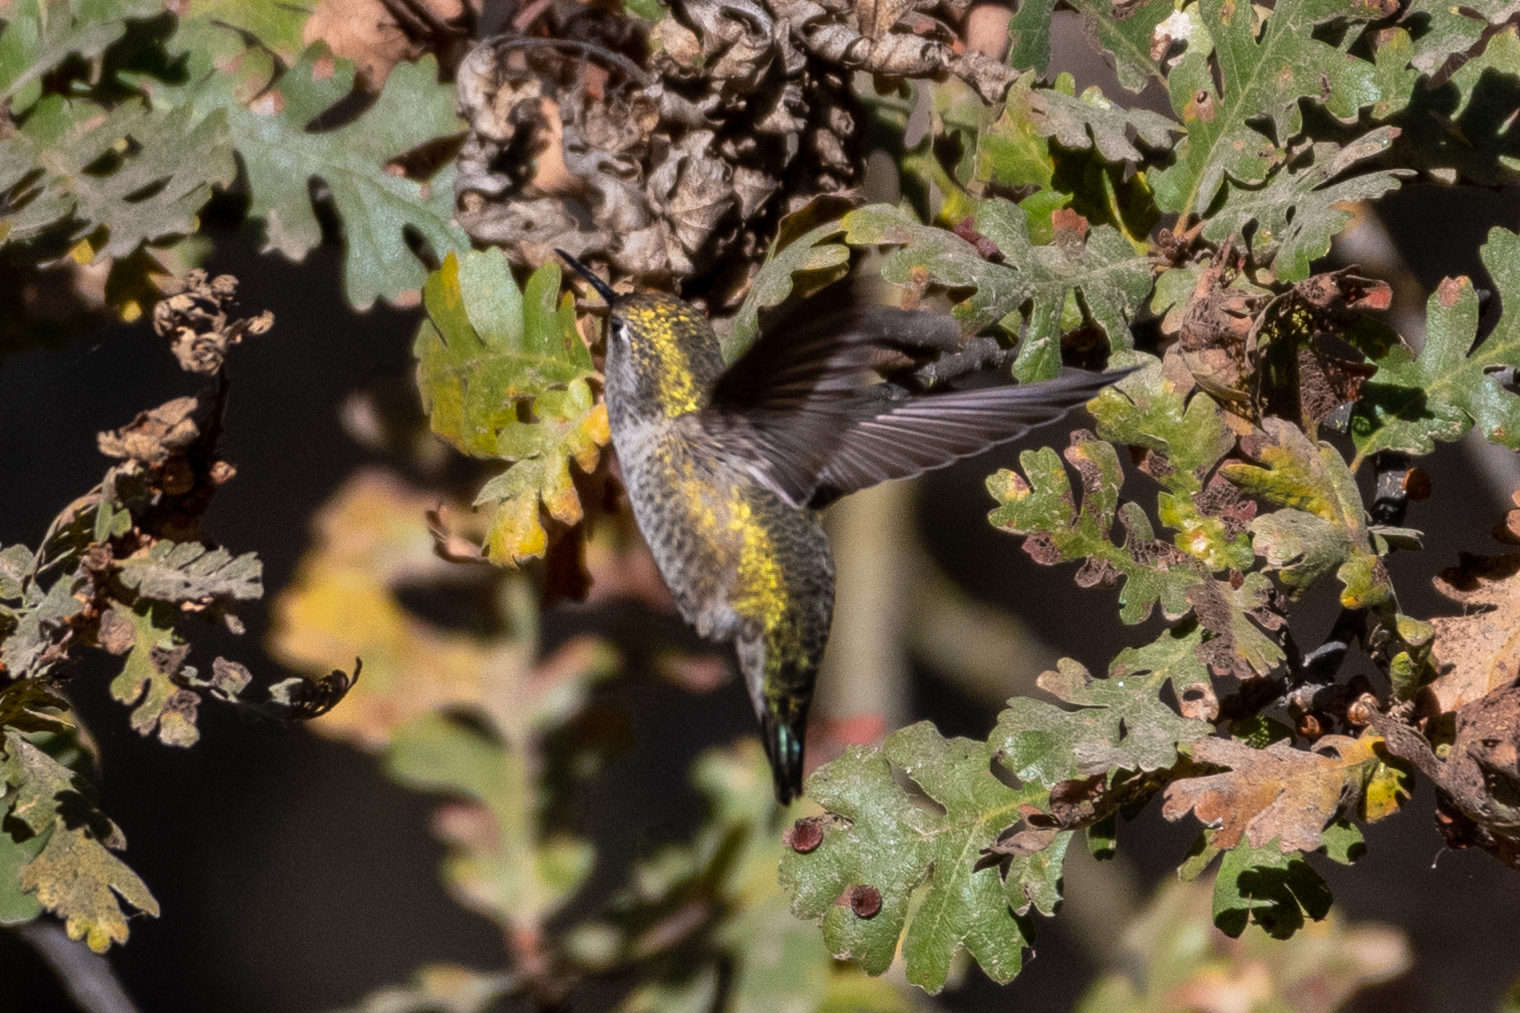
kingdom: Animalia
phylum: Chordata
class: Aves
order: Apodiformes
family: Trochilidae
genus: Calypte
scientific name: Calypte anna
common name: Anna's hummingbird
